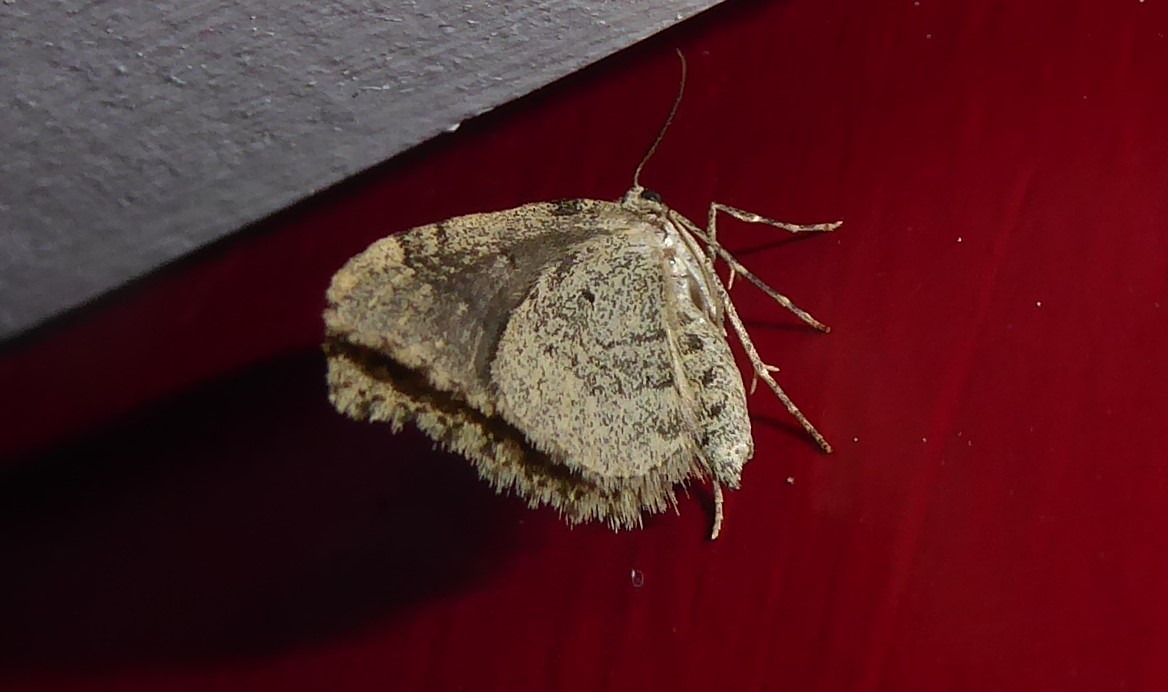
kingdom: Animalia
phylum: Arthropoda
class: Insecta
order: Lepidoptera
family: Geometridae
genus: Helastia
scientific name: Helastia cinerearia
